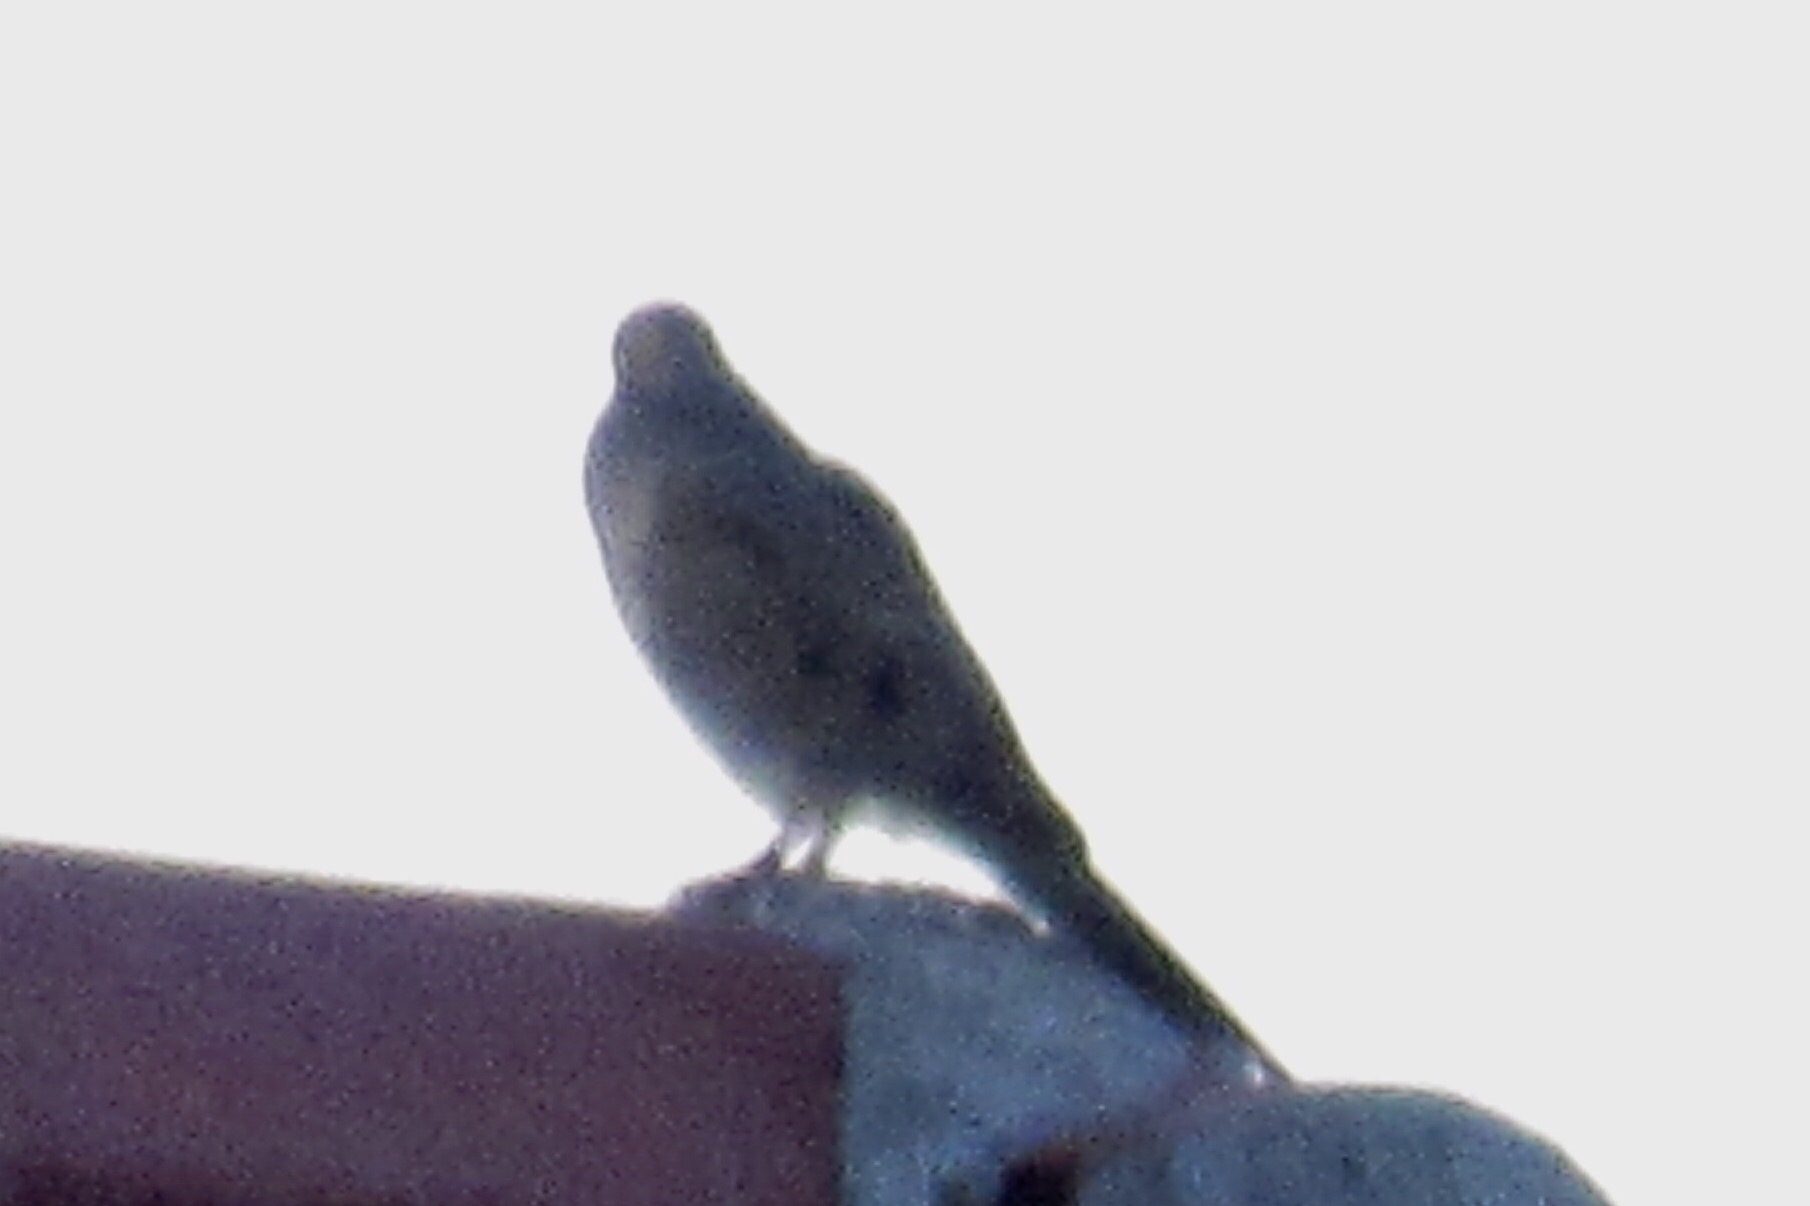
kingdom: Animalia
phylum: Chordata
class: Aves
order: Columbiformes
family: Columbidae
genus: Zenaida
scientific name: Zenaida macroura
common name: Mourning dove
